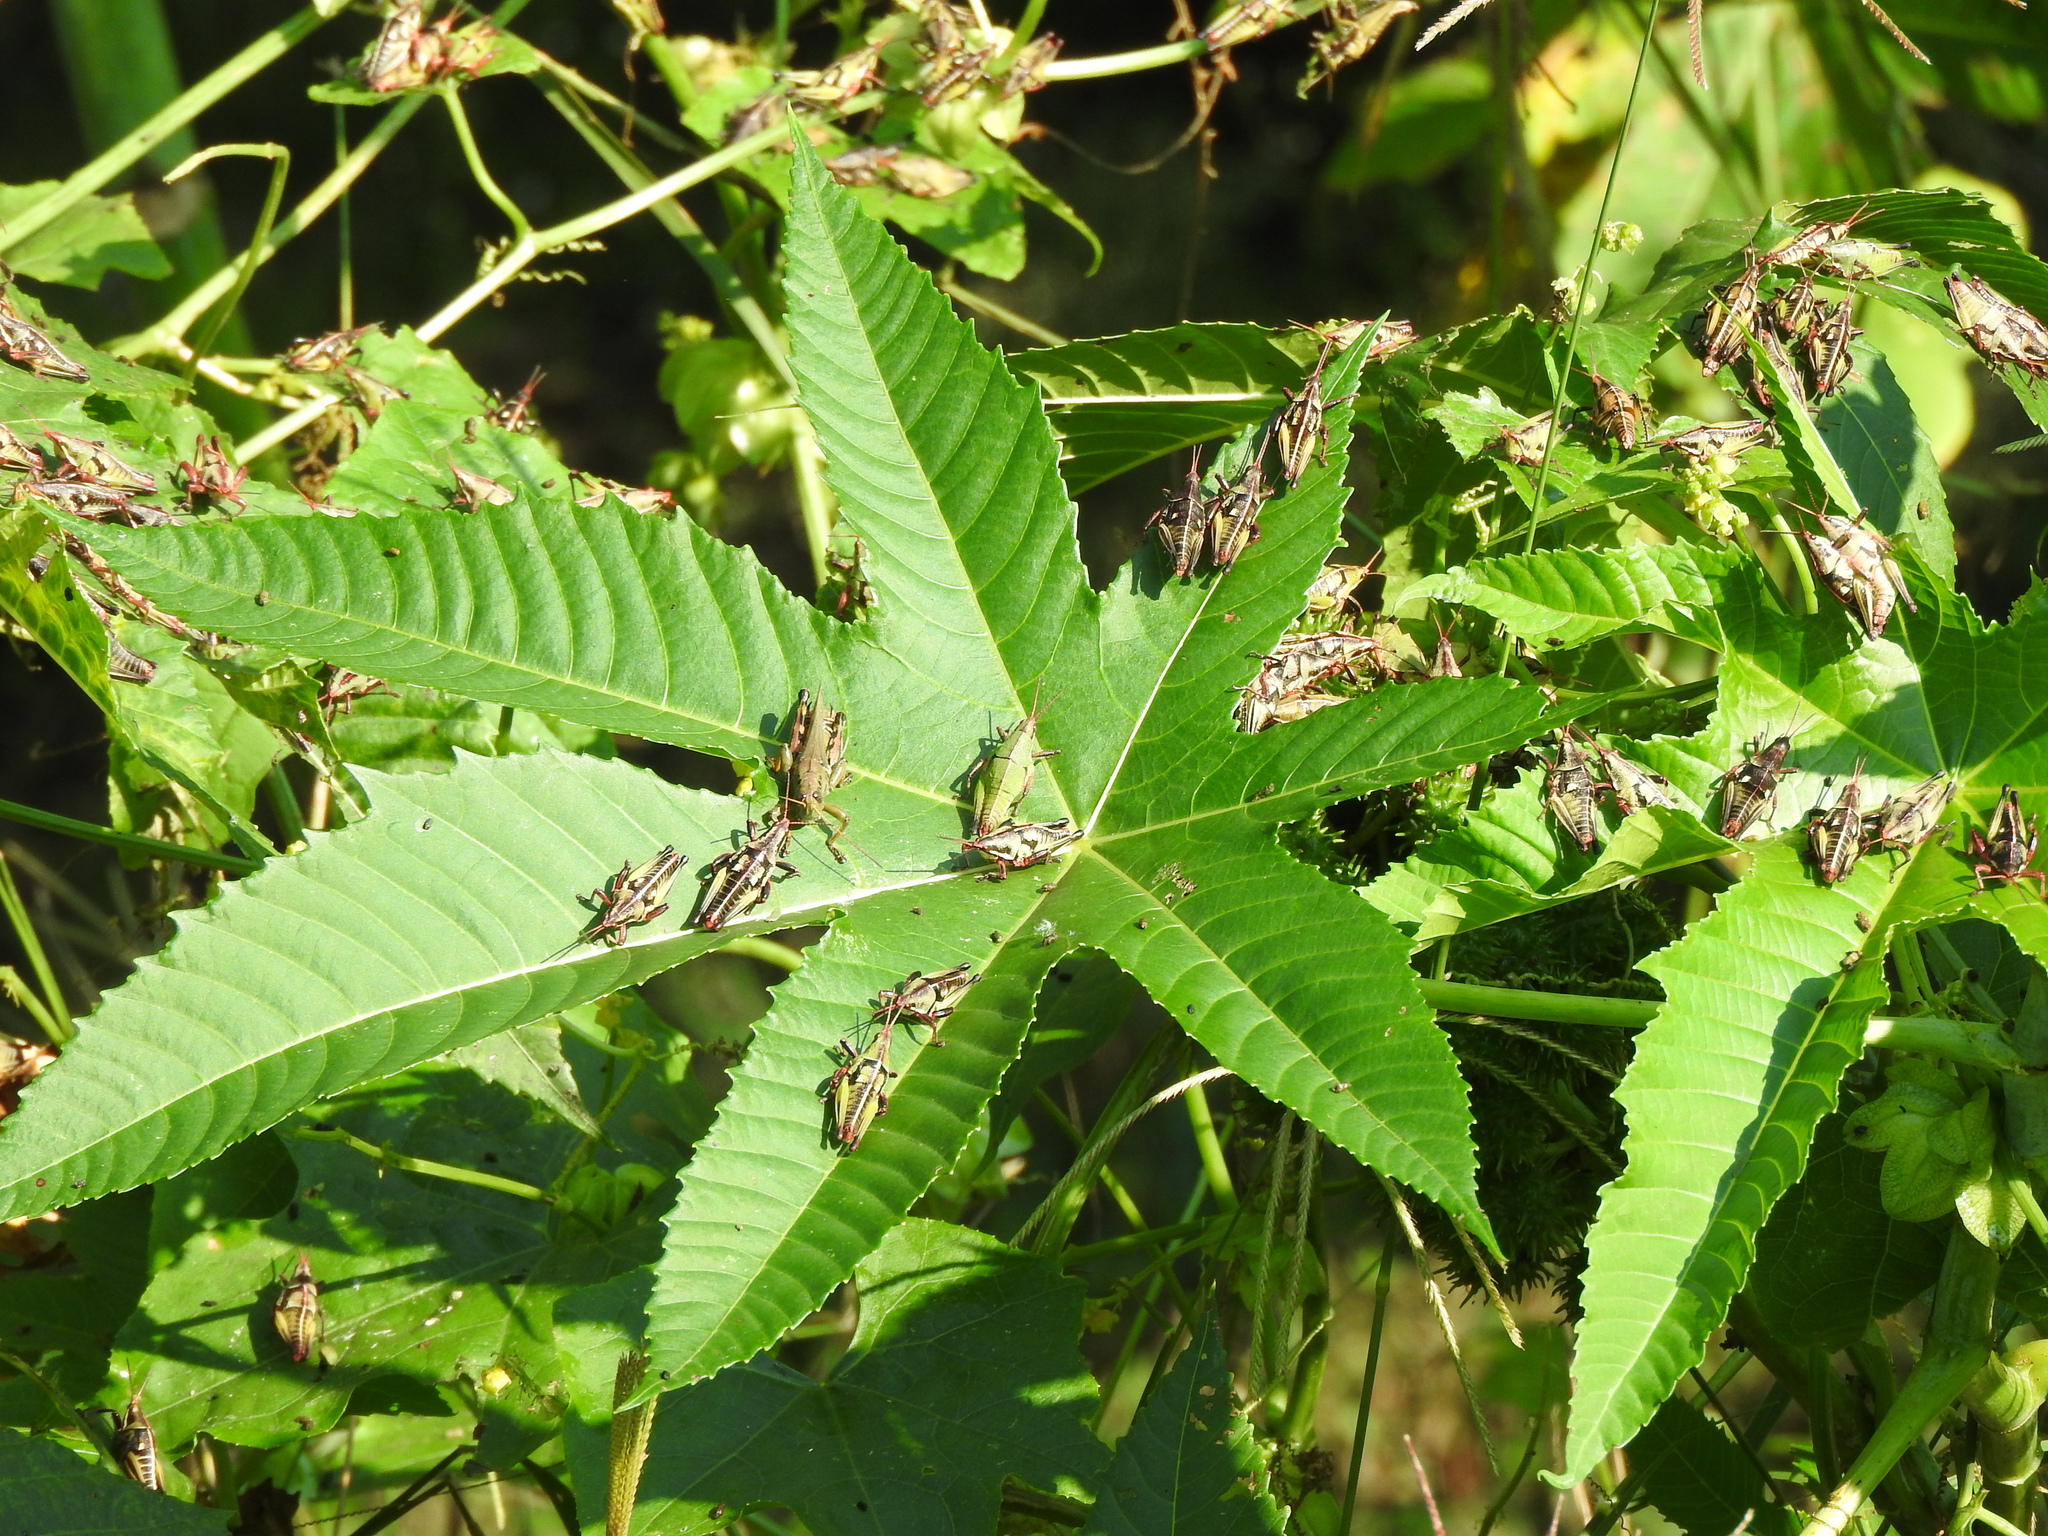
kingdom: Animalia
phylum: Arthropoda
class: Insecta
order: Orthoptera
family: Pyrgomorphidae
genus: Sphenarium
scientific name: Sphenarium purpurascens
